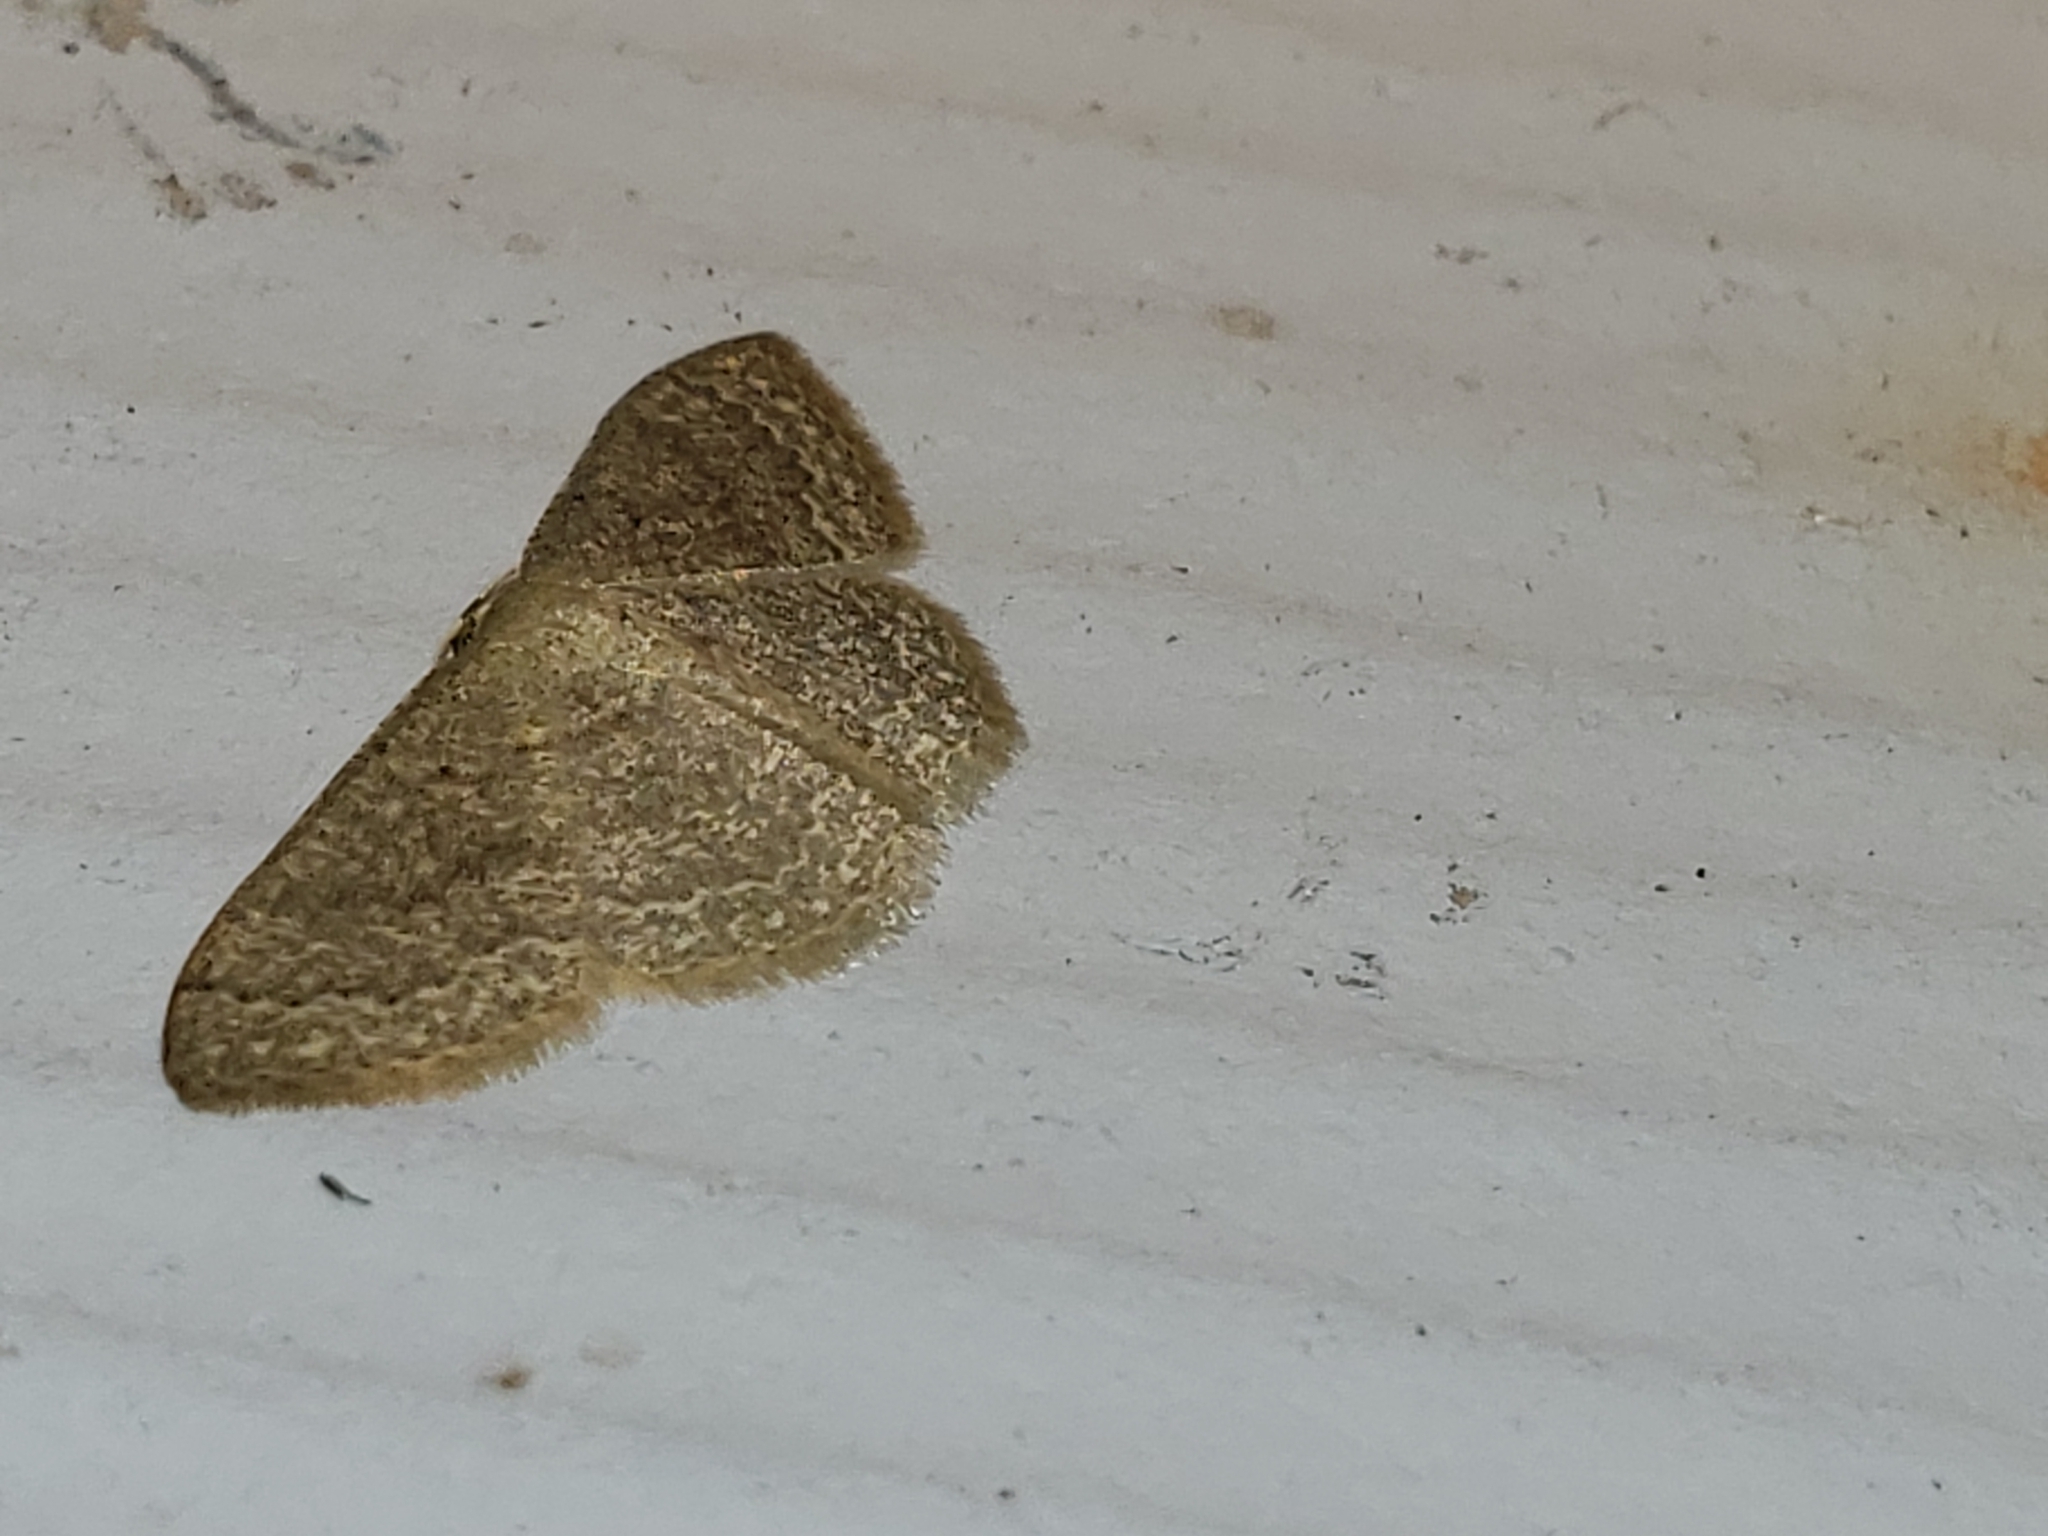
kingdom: Animalia
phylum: Arthropoda
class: Insecta
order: Lepidoptera
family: Geometridae
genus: Pleuroprucha
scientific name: Pleuroprucha insulsaria
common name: Common tan wave
